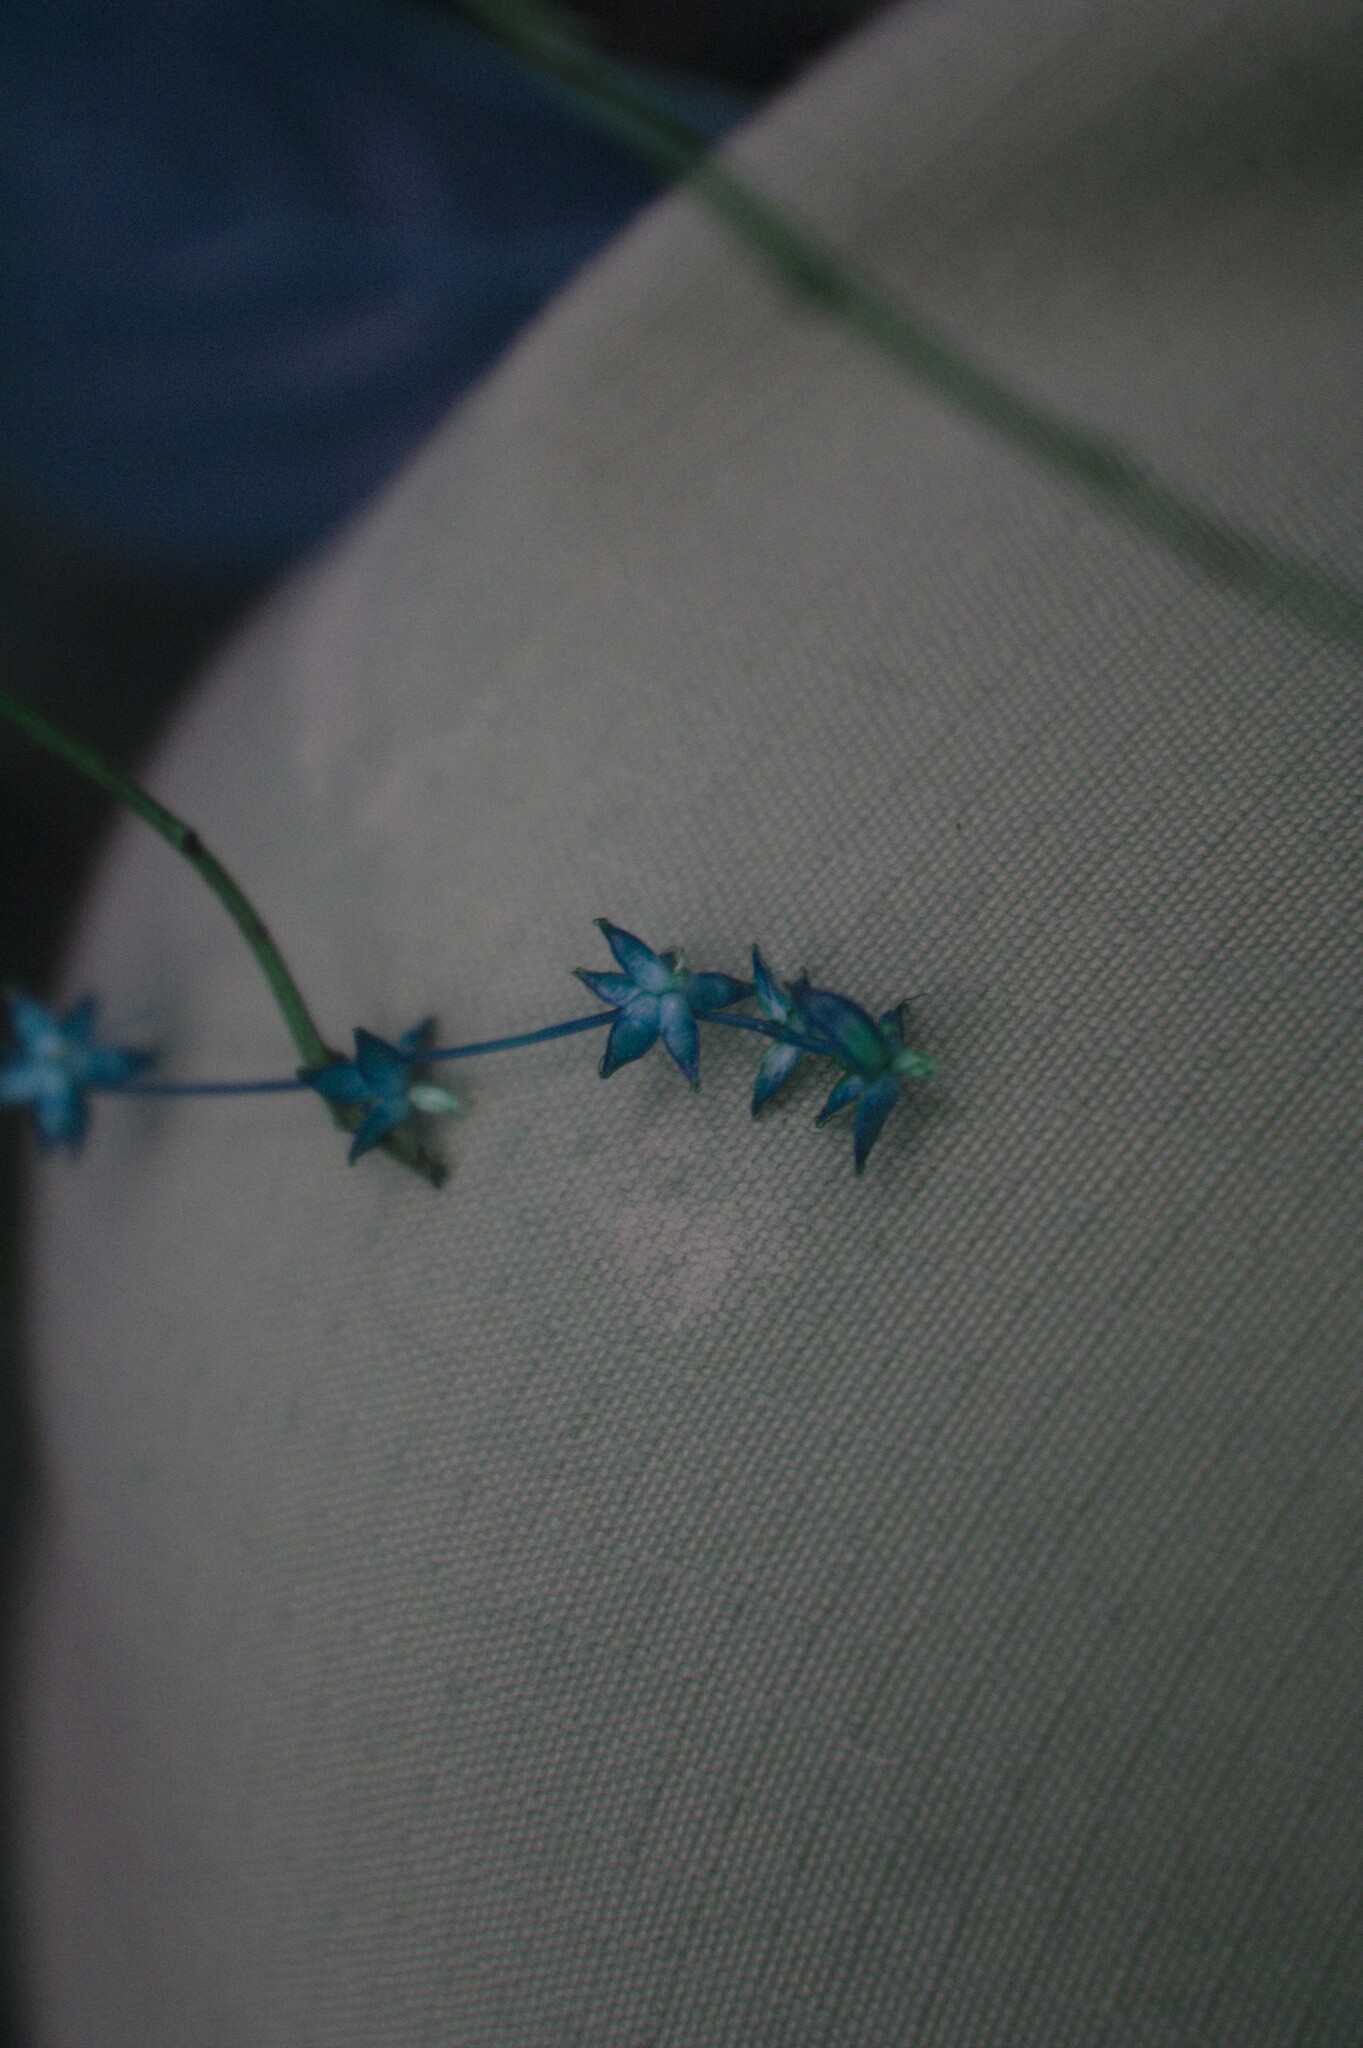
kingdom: Plantae
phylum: Tracheophyta
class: Liliopsida
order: Poales
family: Cyperaceae
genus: Carex
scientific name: Carex radiata
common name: Eastern star sedge
